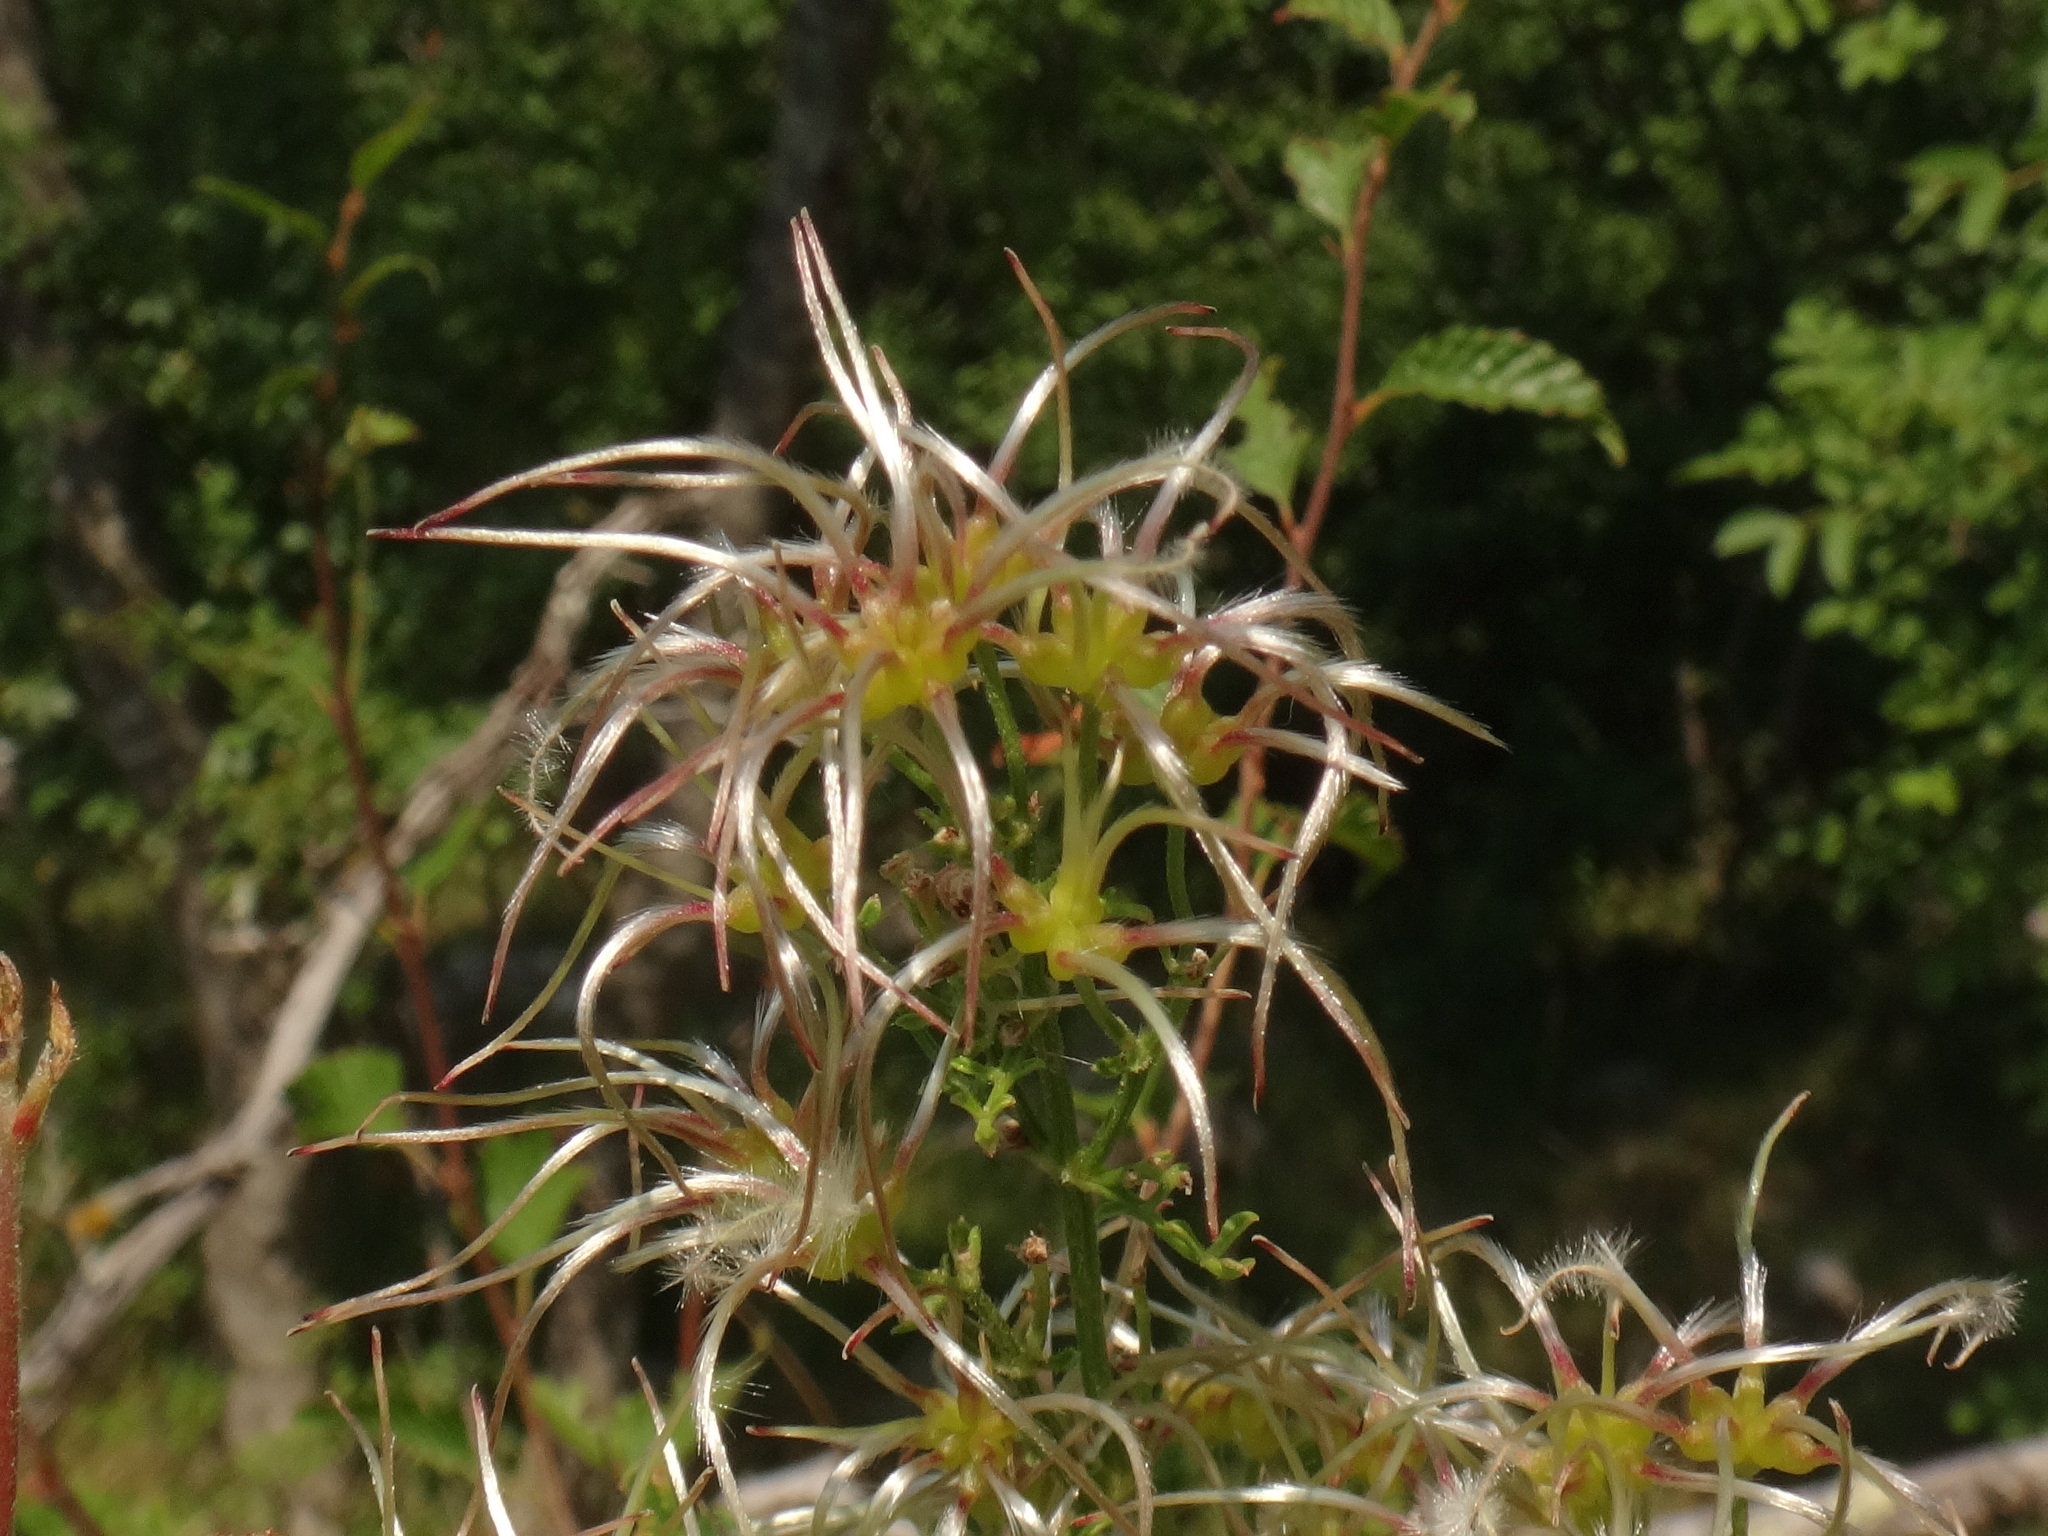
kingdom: Plantae
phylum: Tracheophyta
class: Magnoliopsida
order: Ranunculales
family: Ranunculaceae
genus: Clematis
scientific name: Clematis flammula
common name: Virgin's-bower
